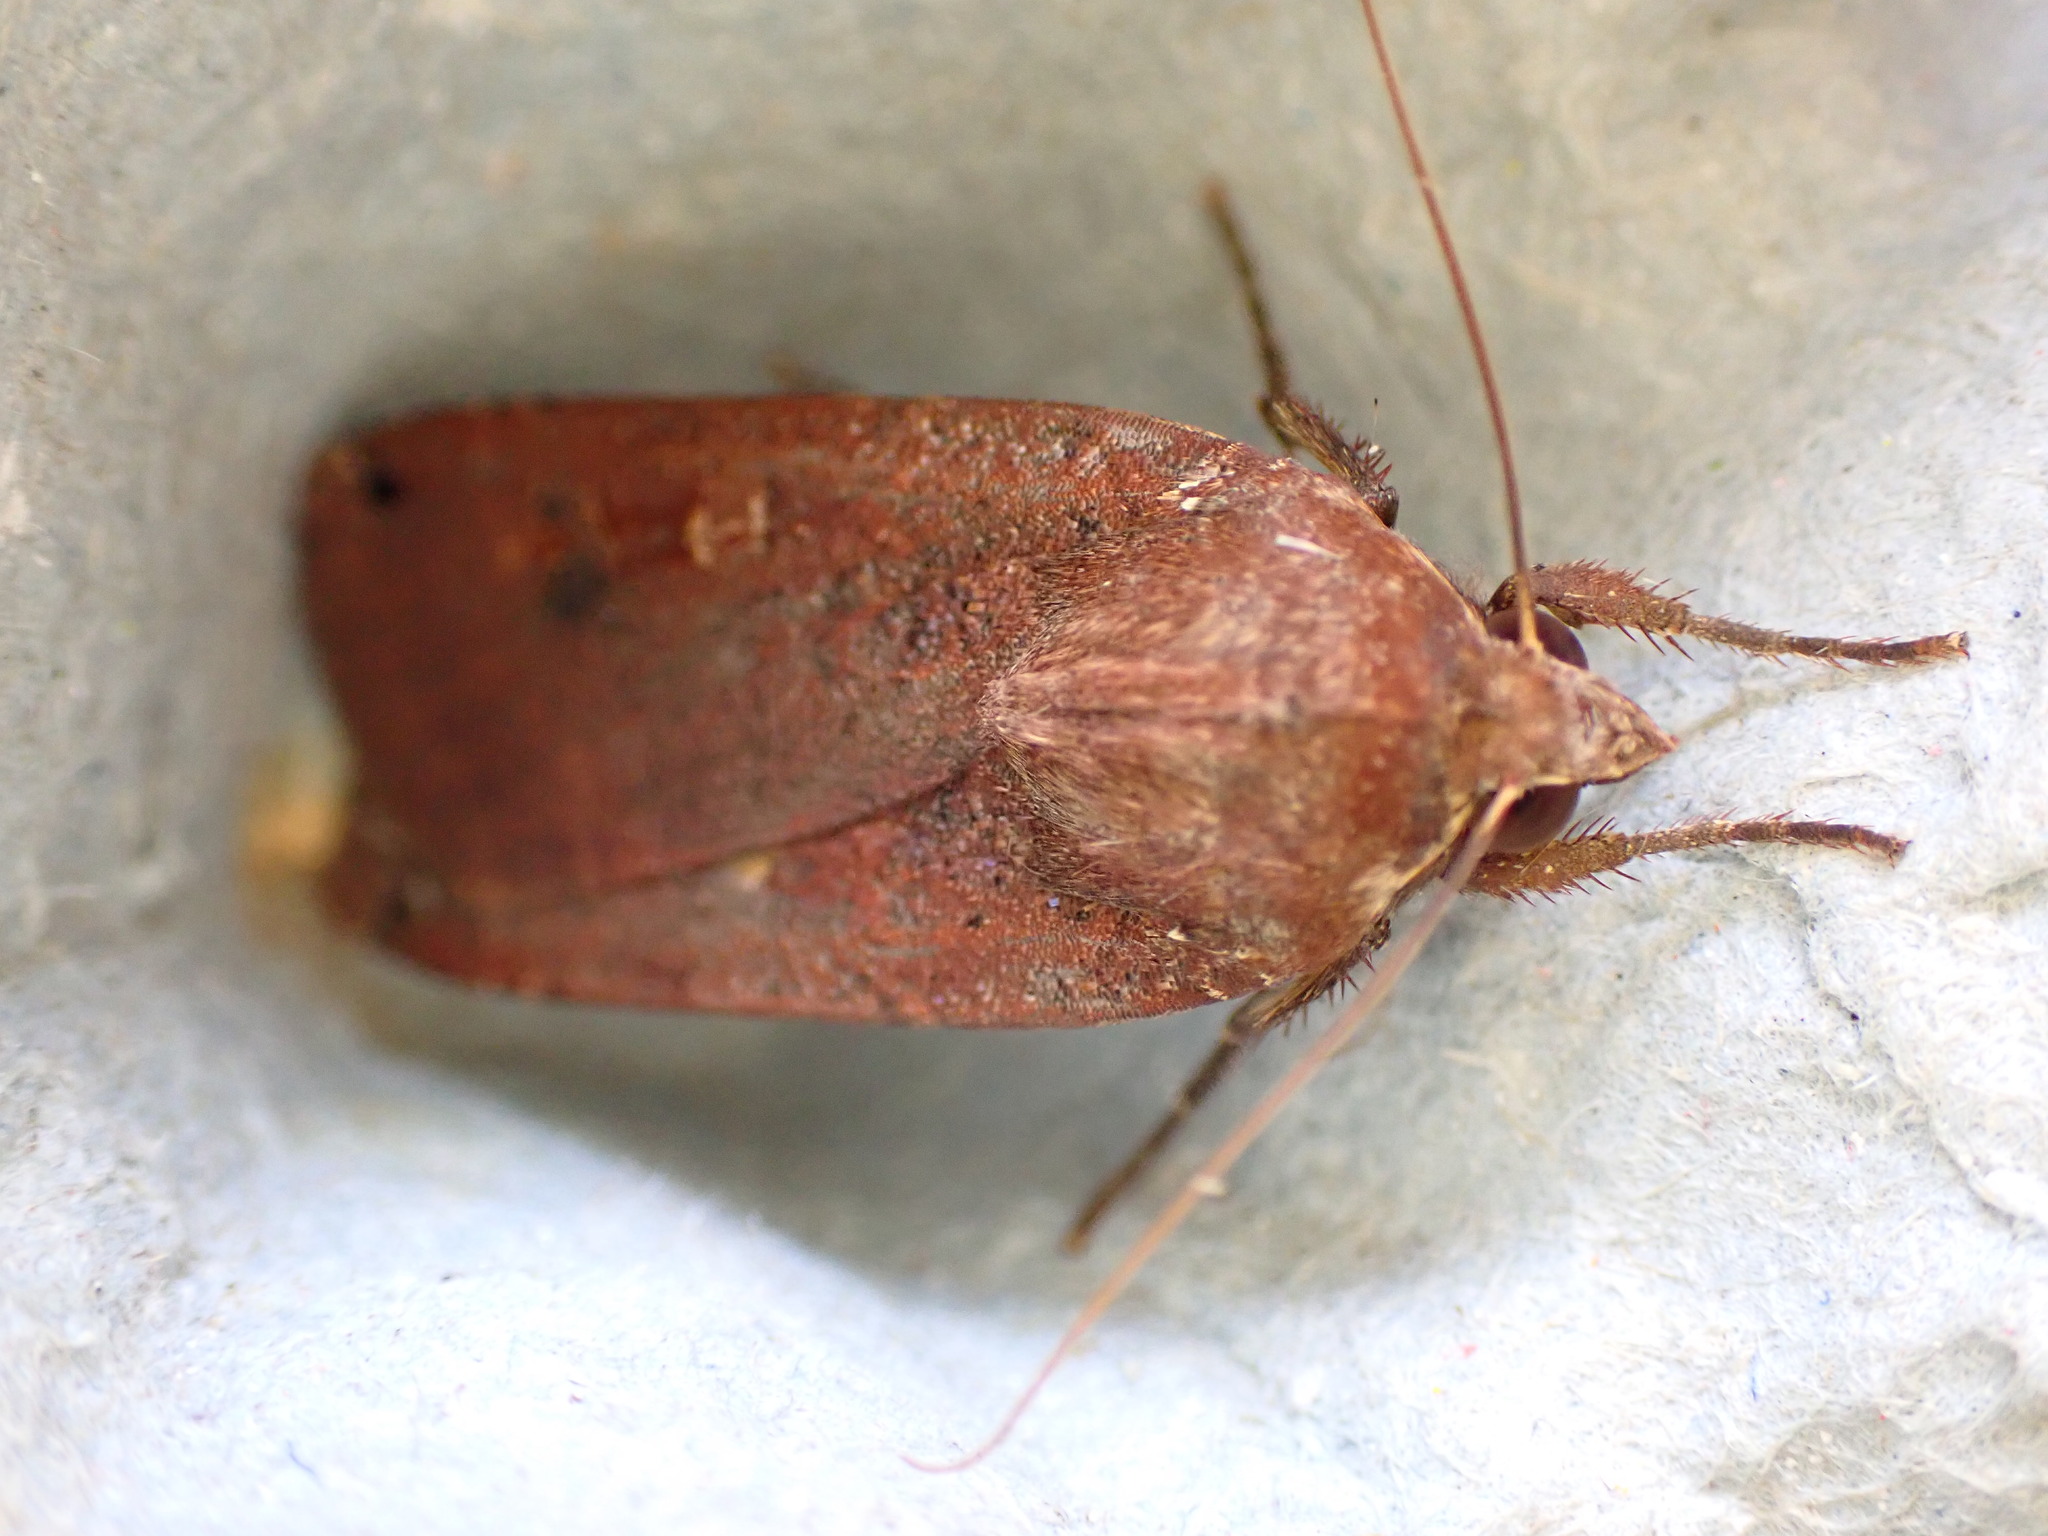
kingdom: Animalia
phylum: Arthropoda
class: Insecta
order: Lepidoptera
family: Noctuidae
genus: Noctua
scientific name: Noctua pronuba
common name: Large yellow underwing
